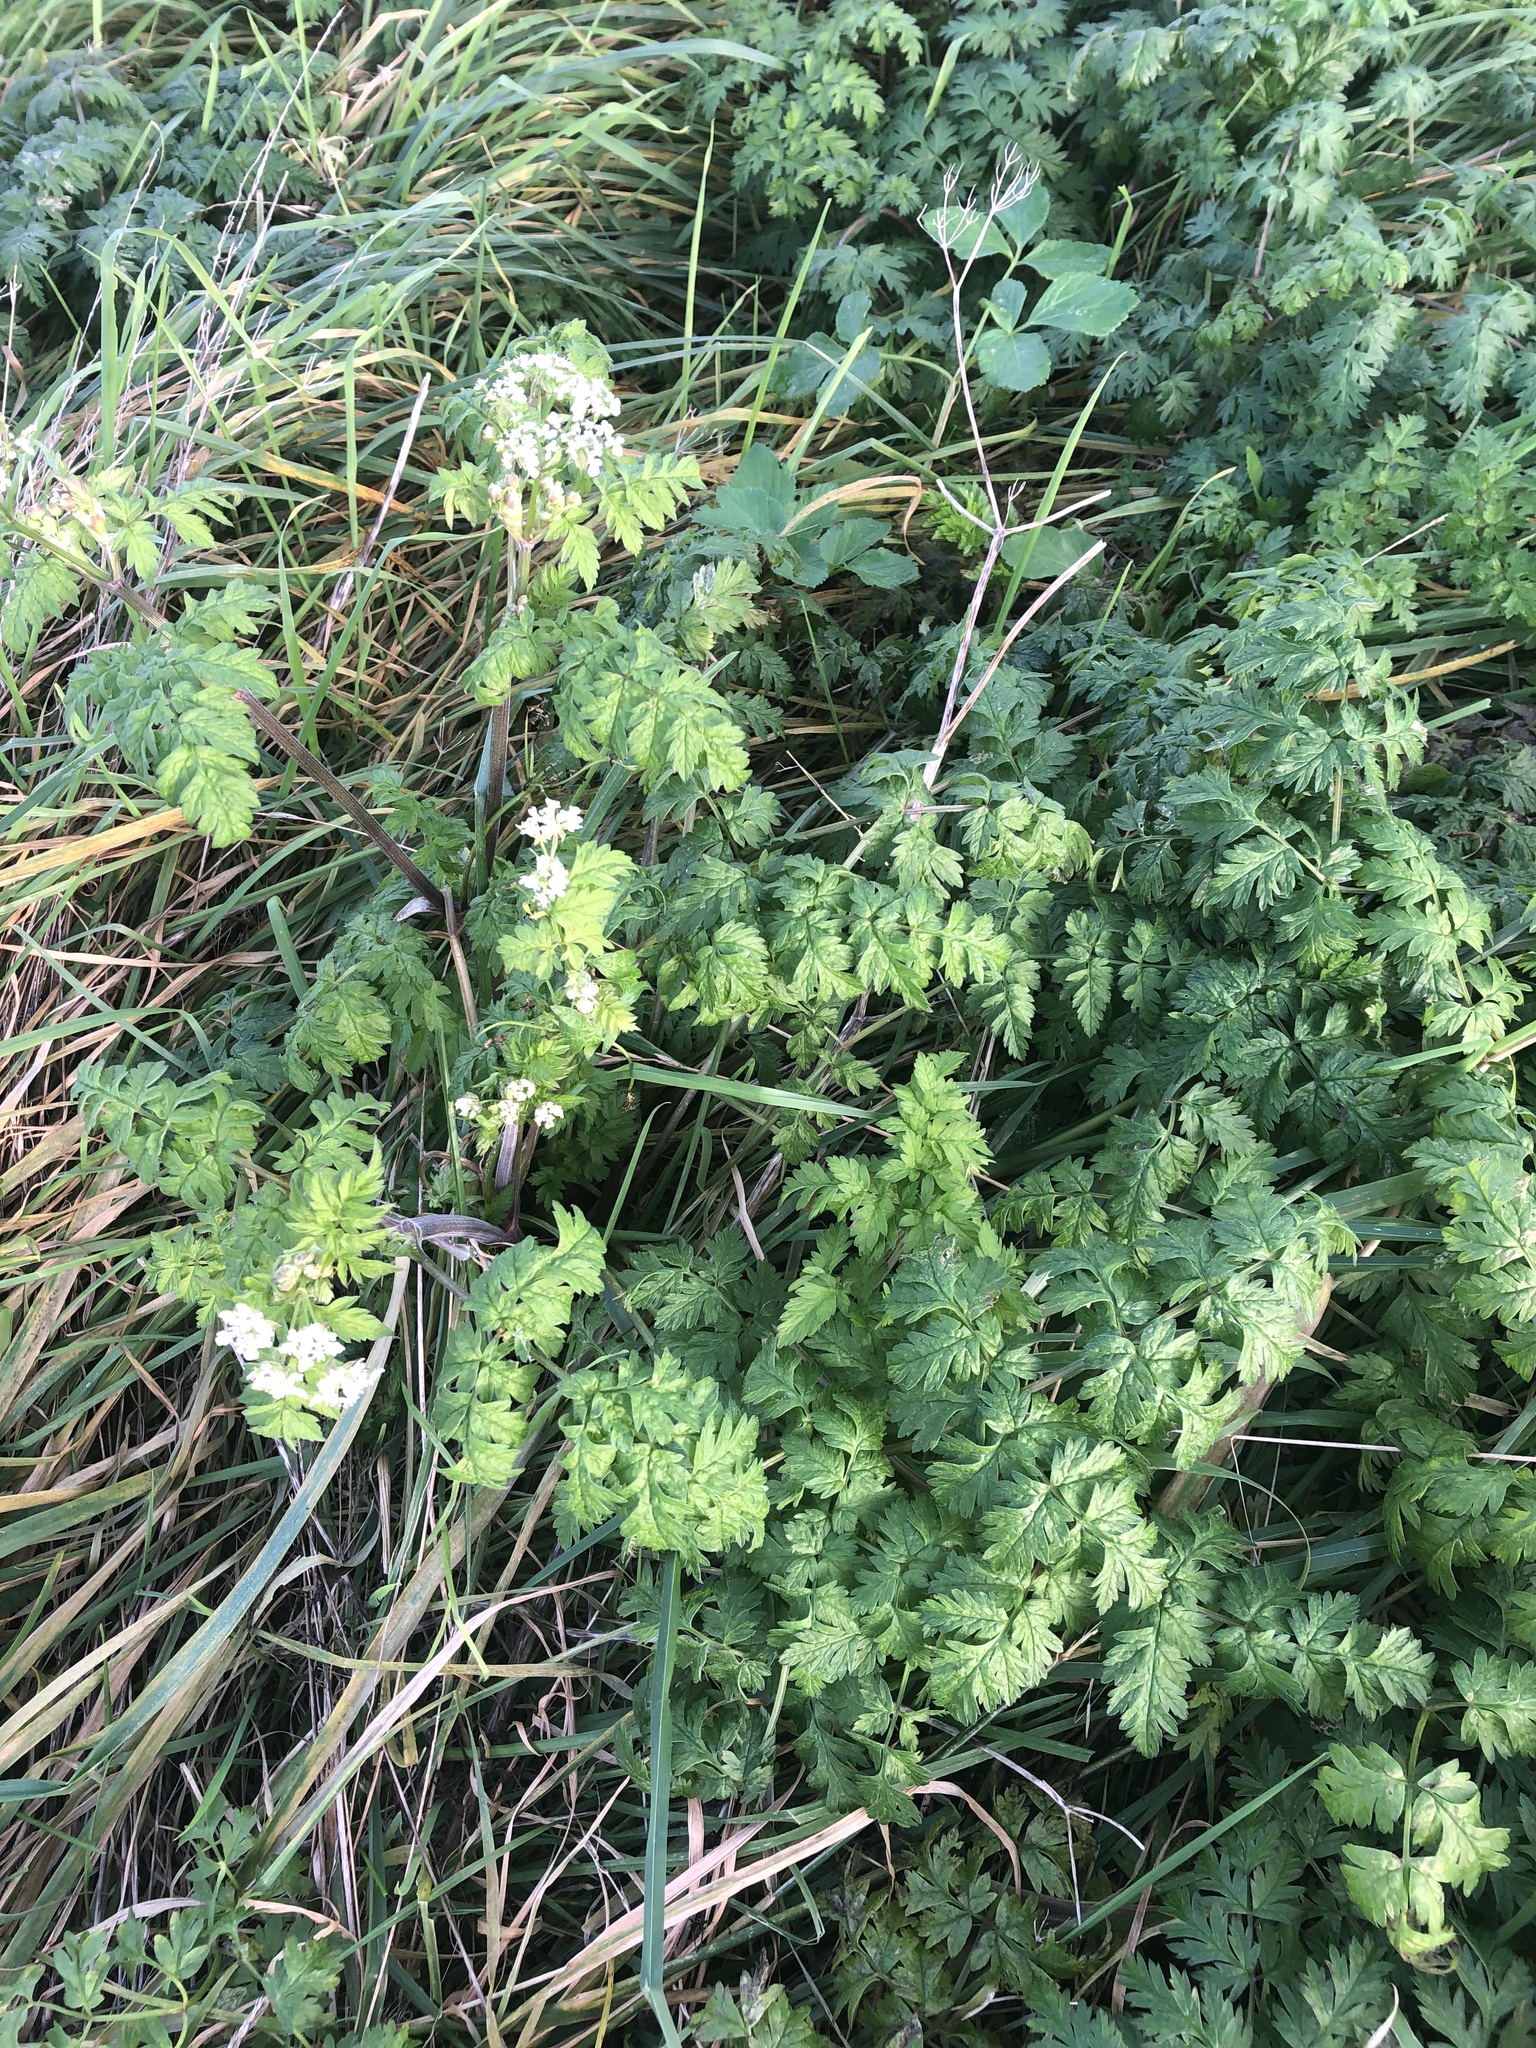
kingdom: Plantae
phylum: Tracheophyta
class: Magnoliopsida
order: Apiales
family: Apiaceae
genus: Anthriscus
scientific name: Anthriscus sylvestris
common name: Cow parsley
